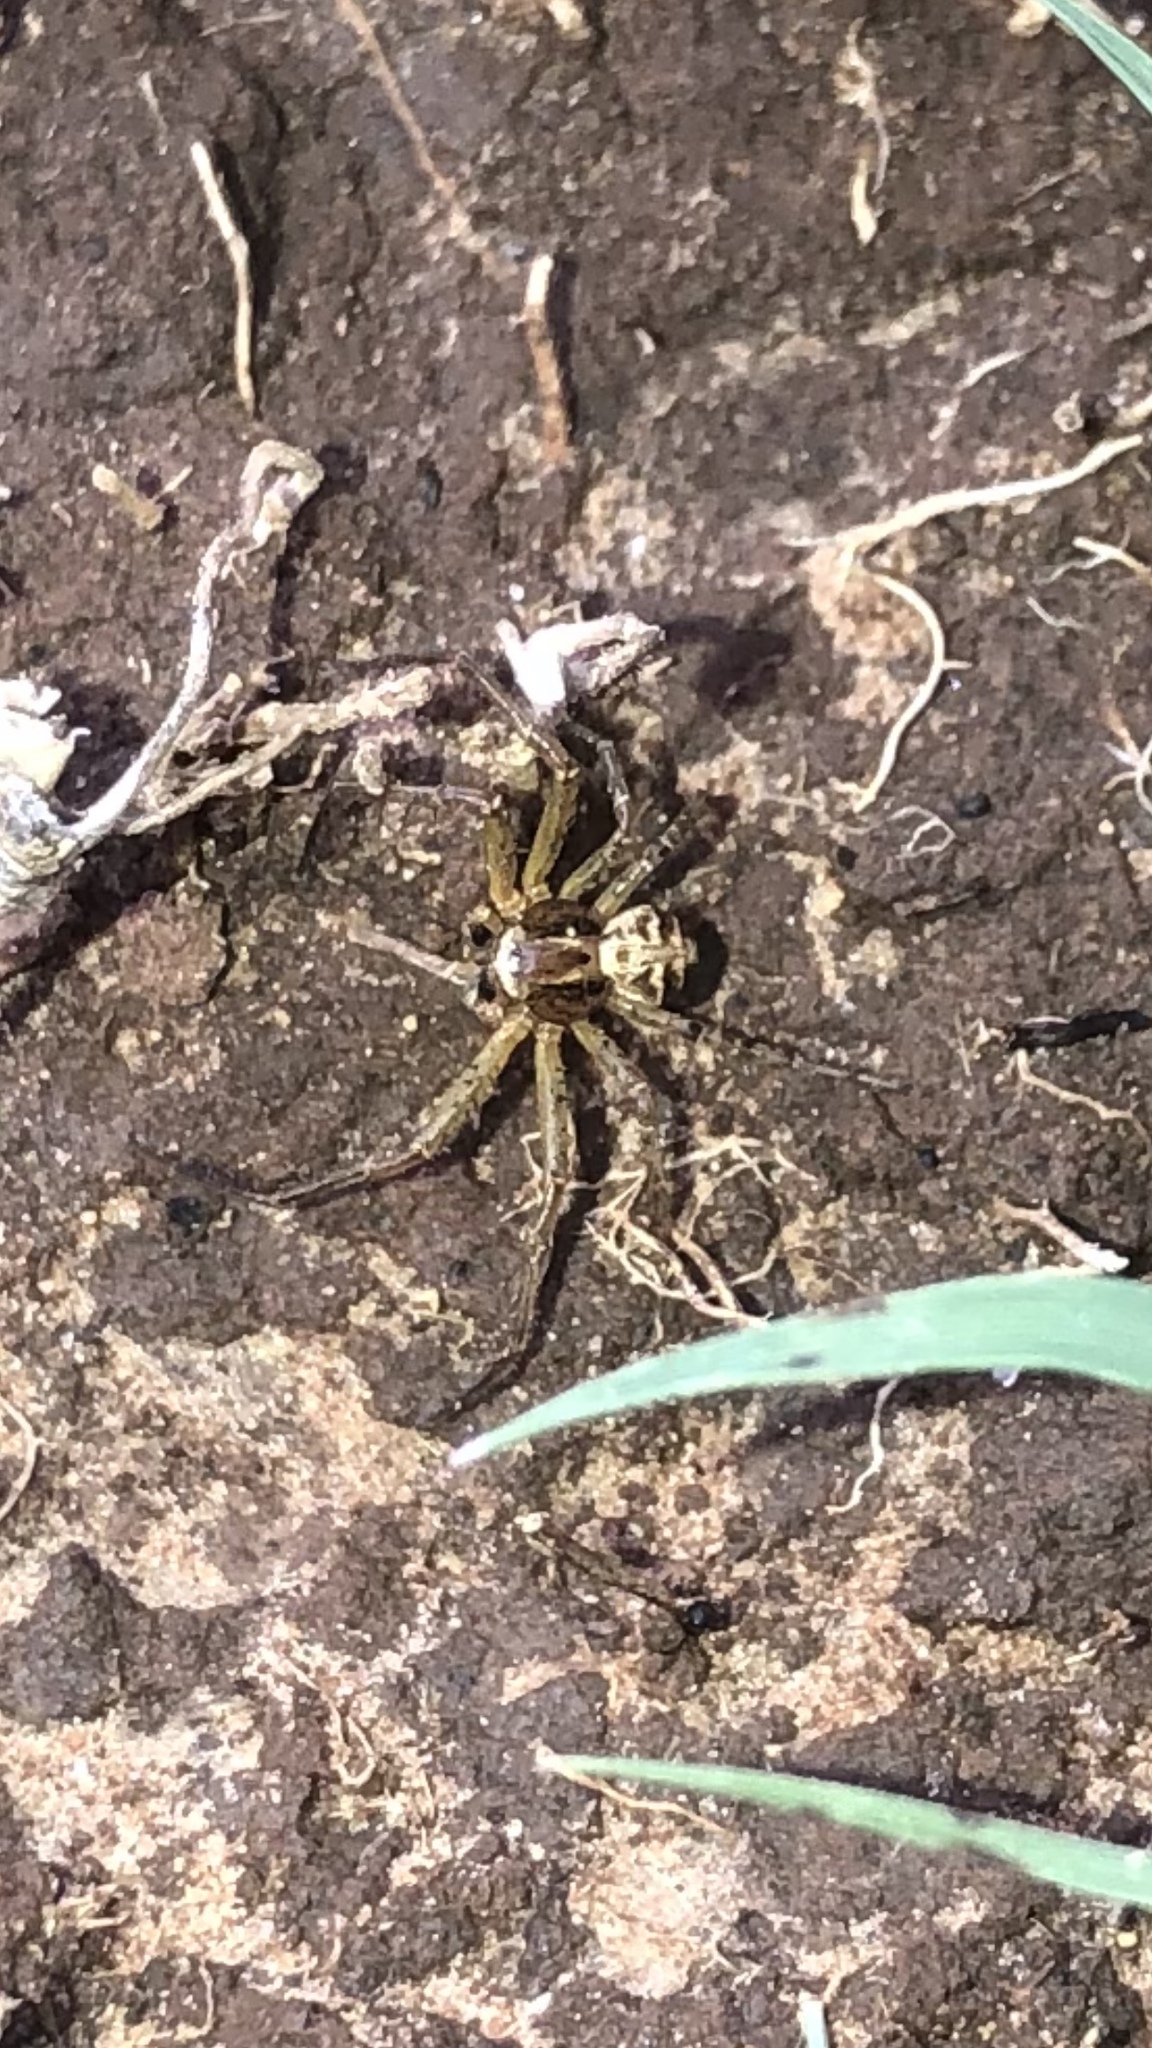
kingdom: Animalia
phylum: Arthropoda
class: Arachnida
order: Araneae
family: Thomisidae
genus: Xysticus
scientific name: Xysticus
